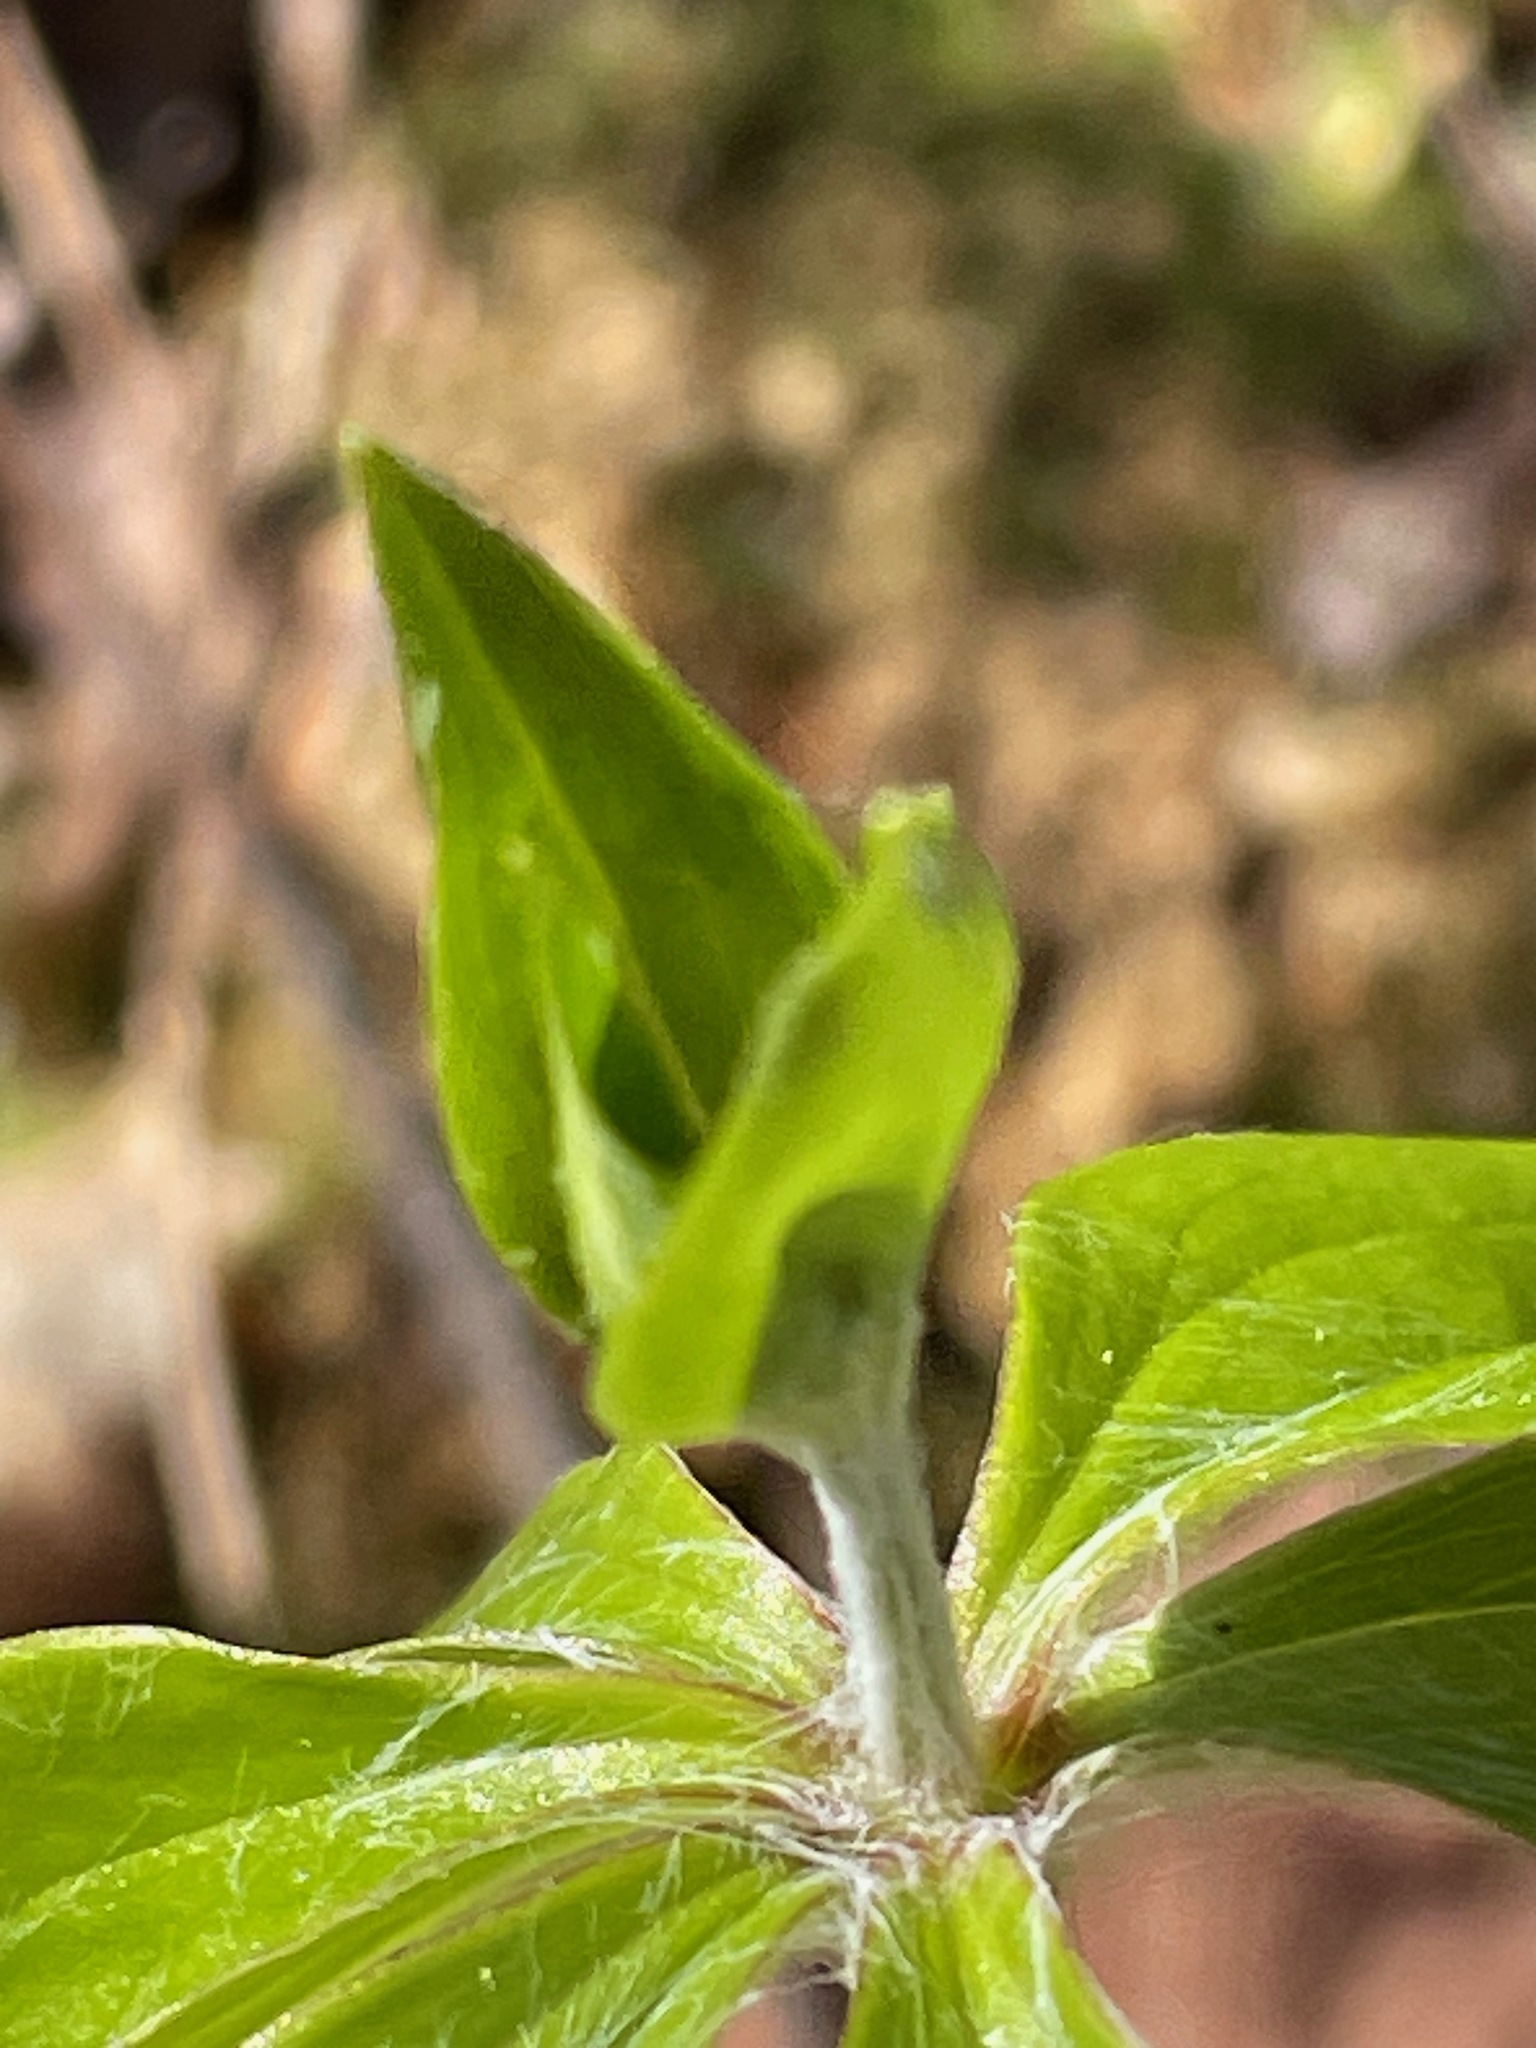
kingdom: Plantae
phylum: Tracheophyta
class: Liliopsida
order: Liliales
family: Liliaceae
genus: Medeola
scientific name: Medeola virginiana
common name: Indian cucumber-root
